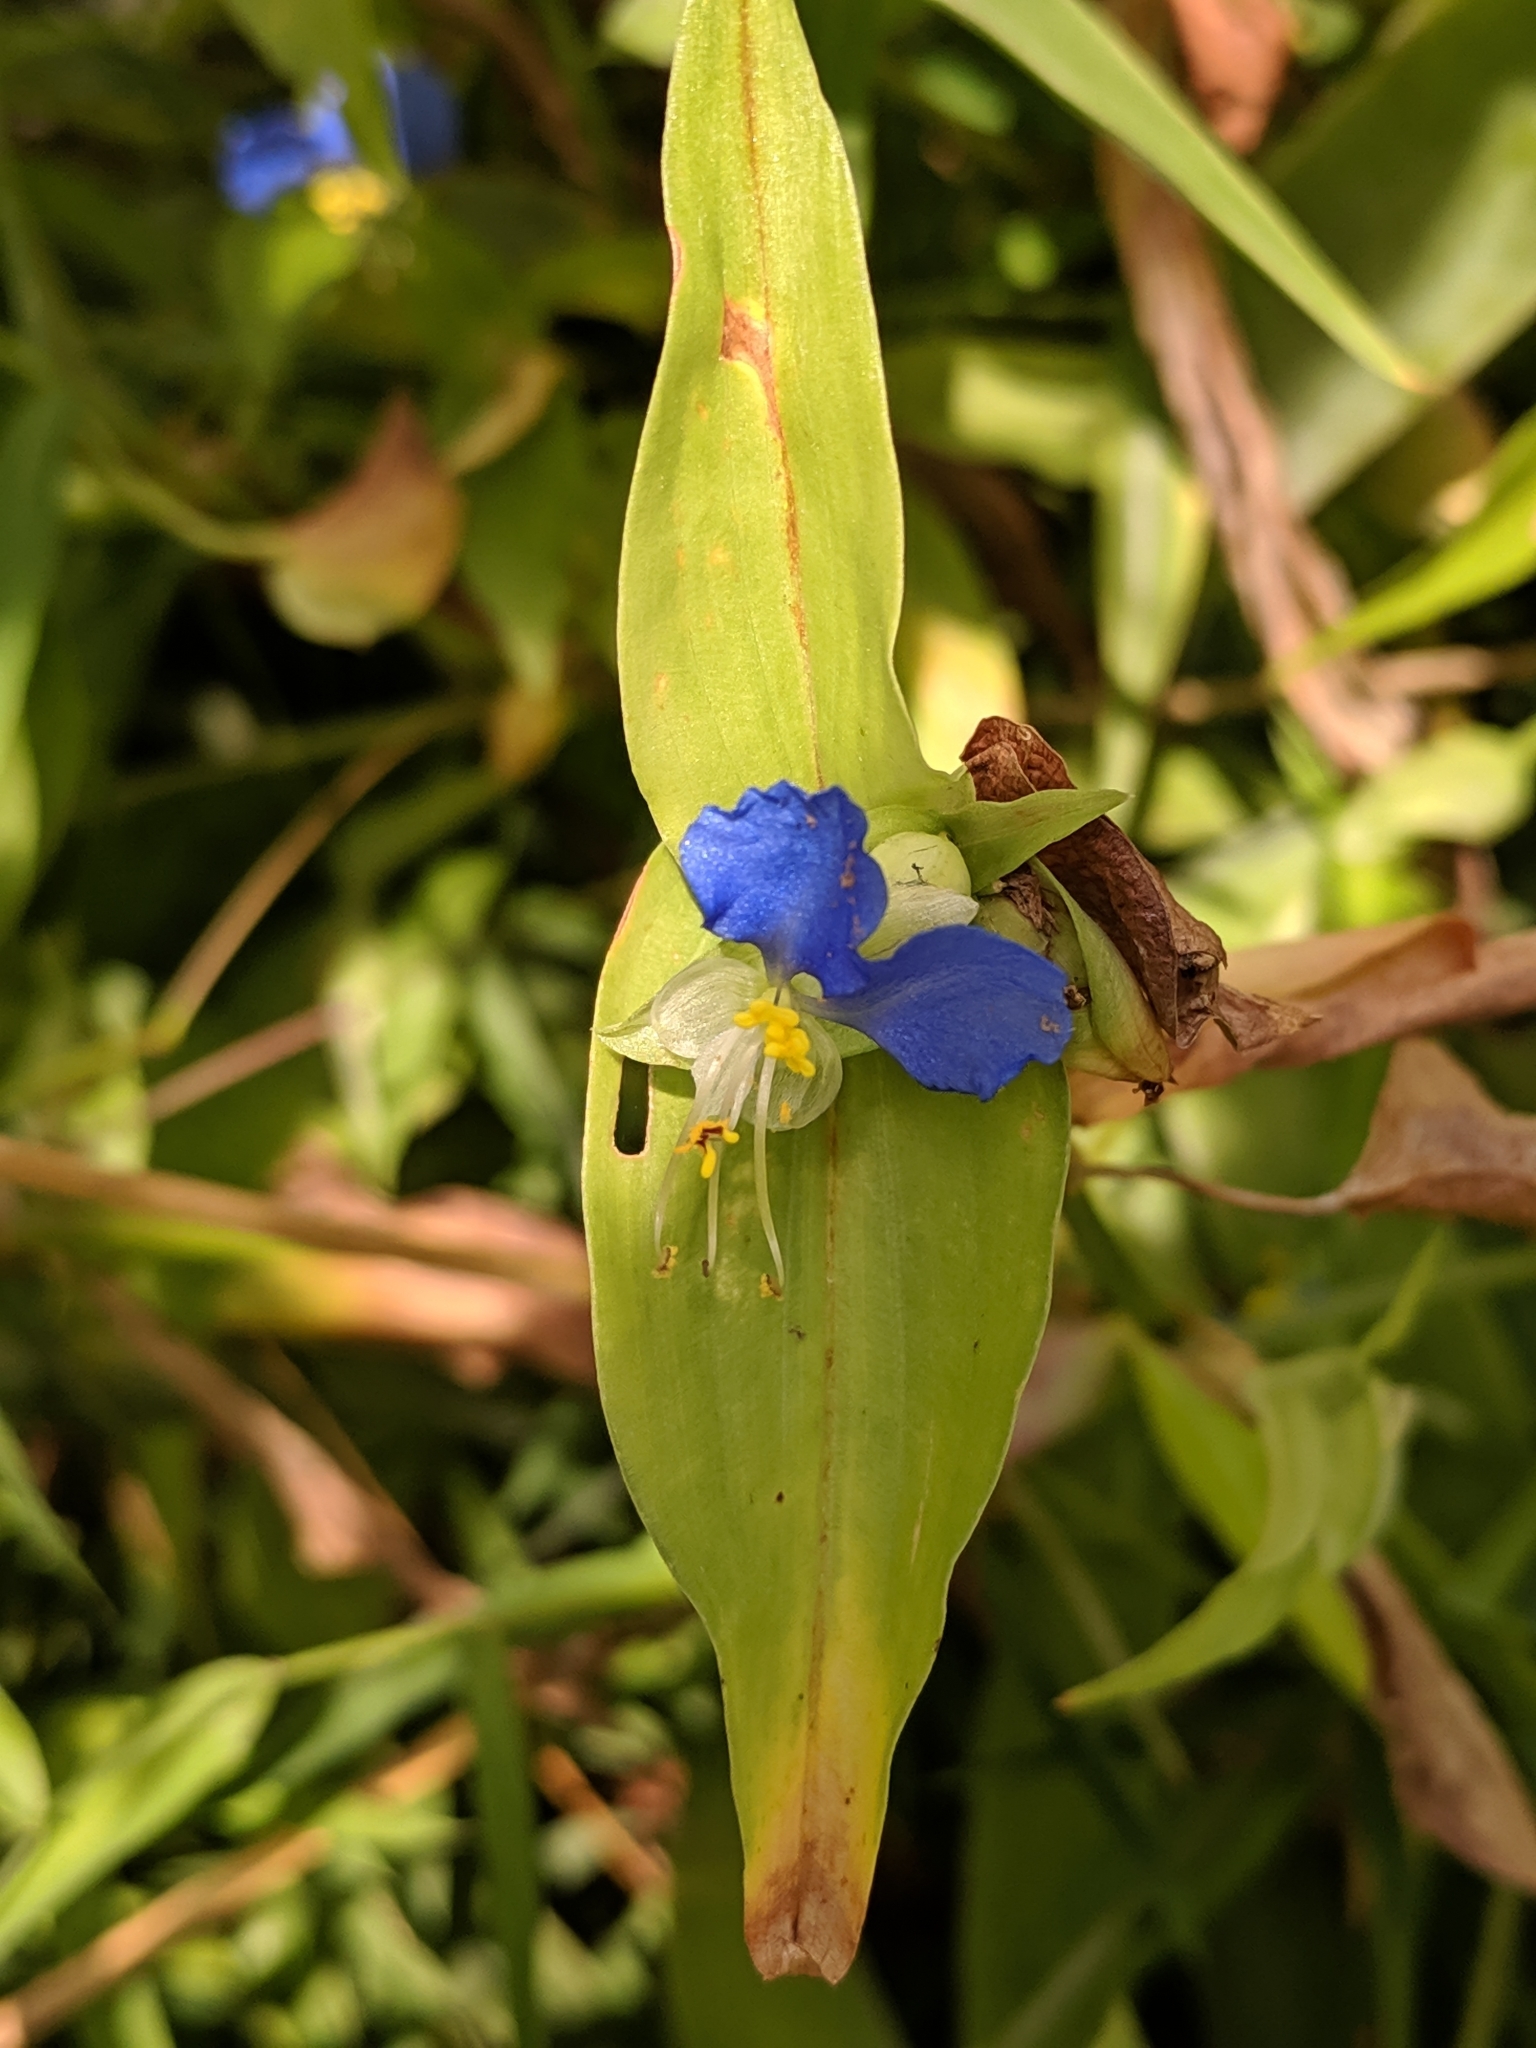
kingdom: Plantae
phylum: Tracheophyta
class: Liliopsida
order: Commelinales
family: Commelinaceae
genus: Commelina
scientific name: Commelina communis
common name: Asiatic dayflower
